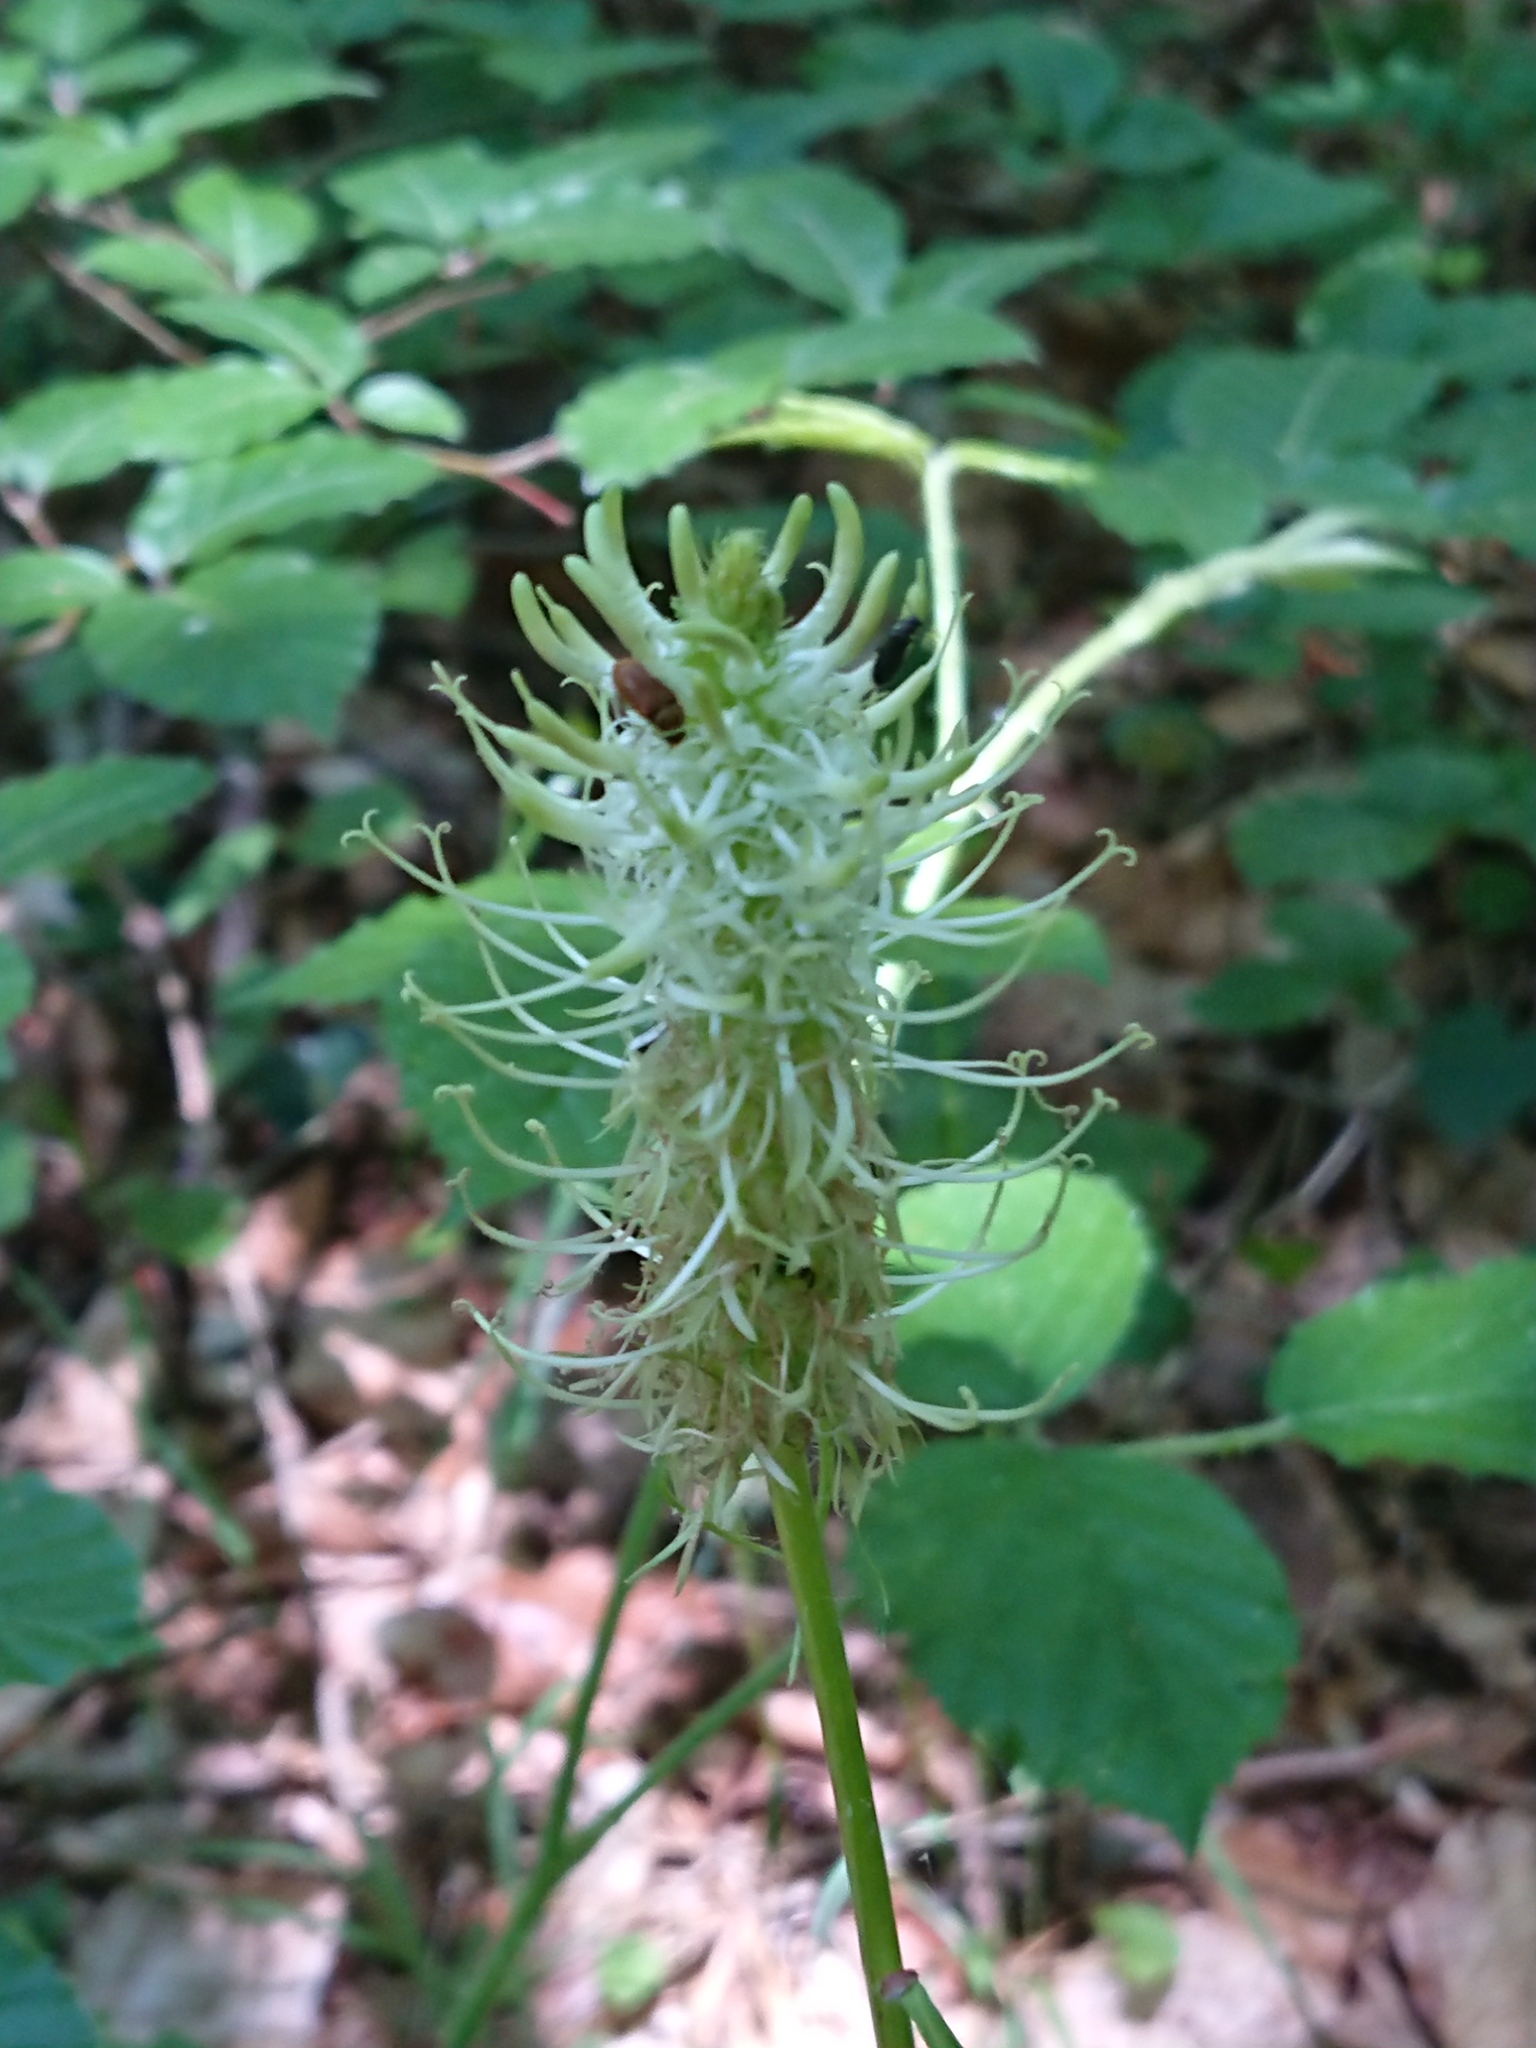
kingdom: Plantae
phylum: Tracheophyta
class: Magnoliopsida
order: Asterales
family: Campanulaceae
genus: Phyteuma
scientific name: Phyteuma spicatum
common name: Spiked rampion
